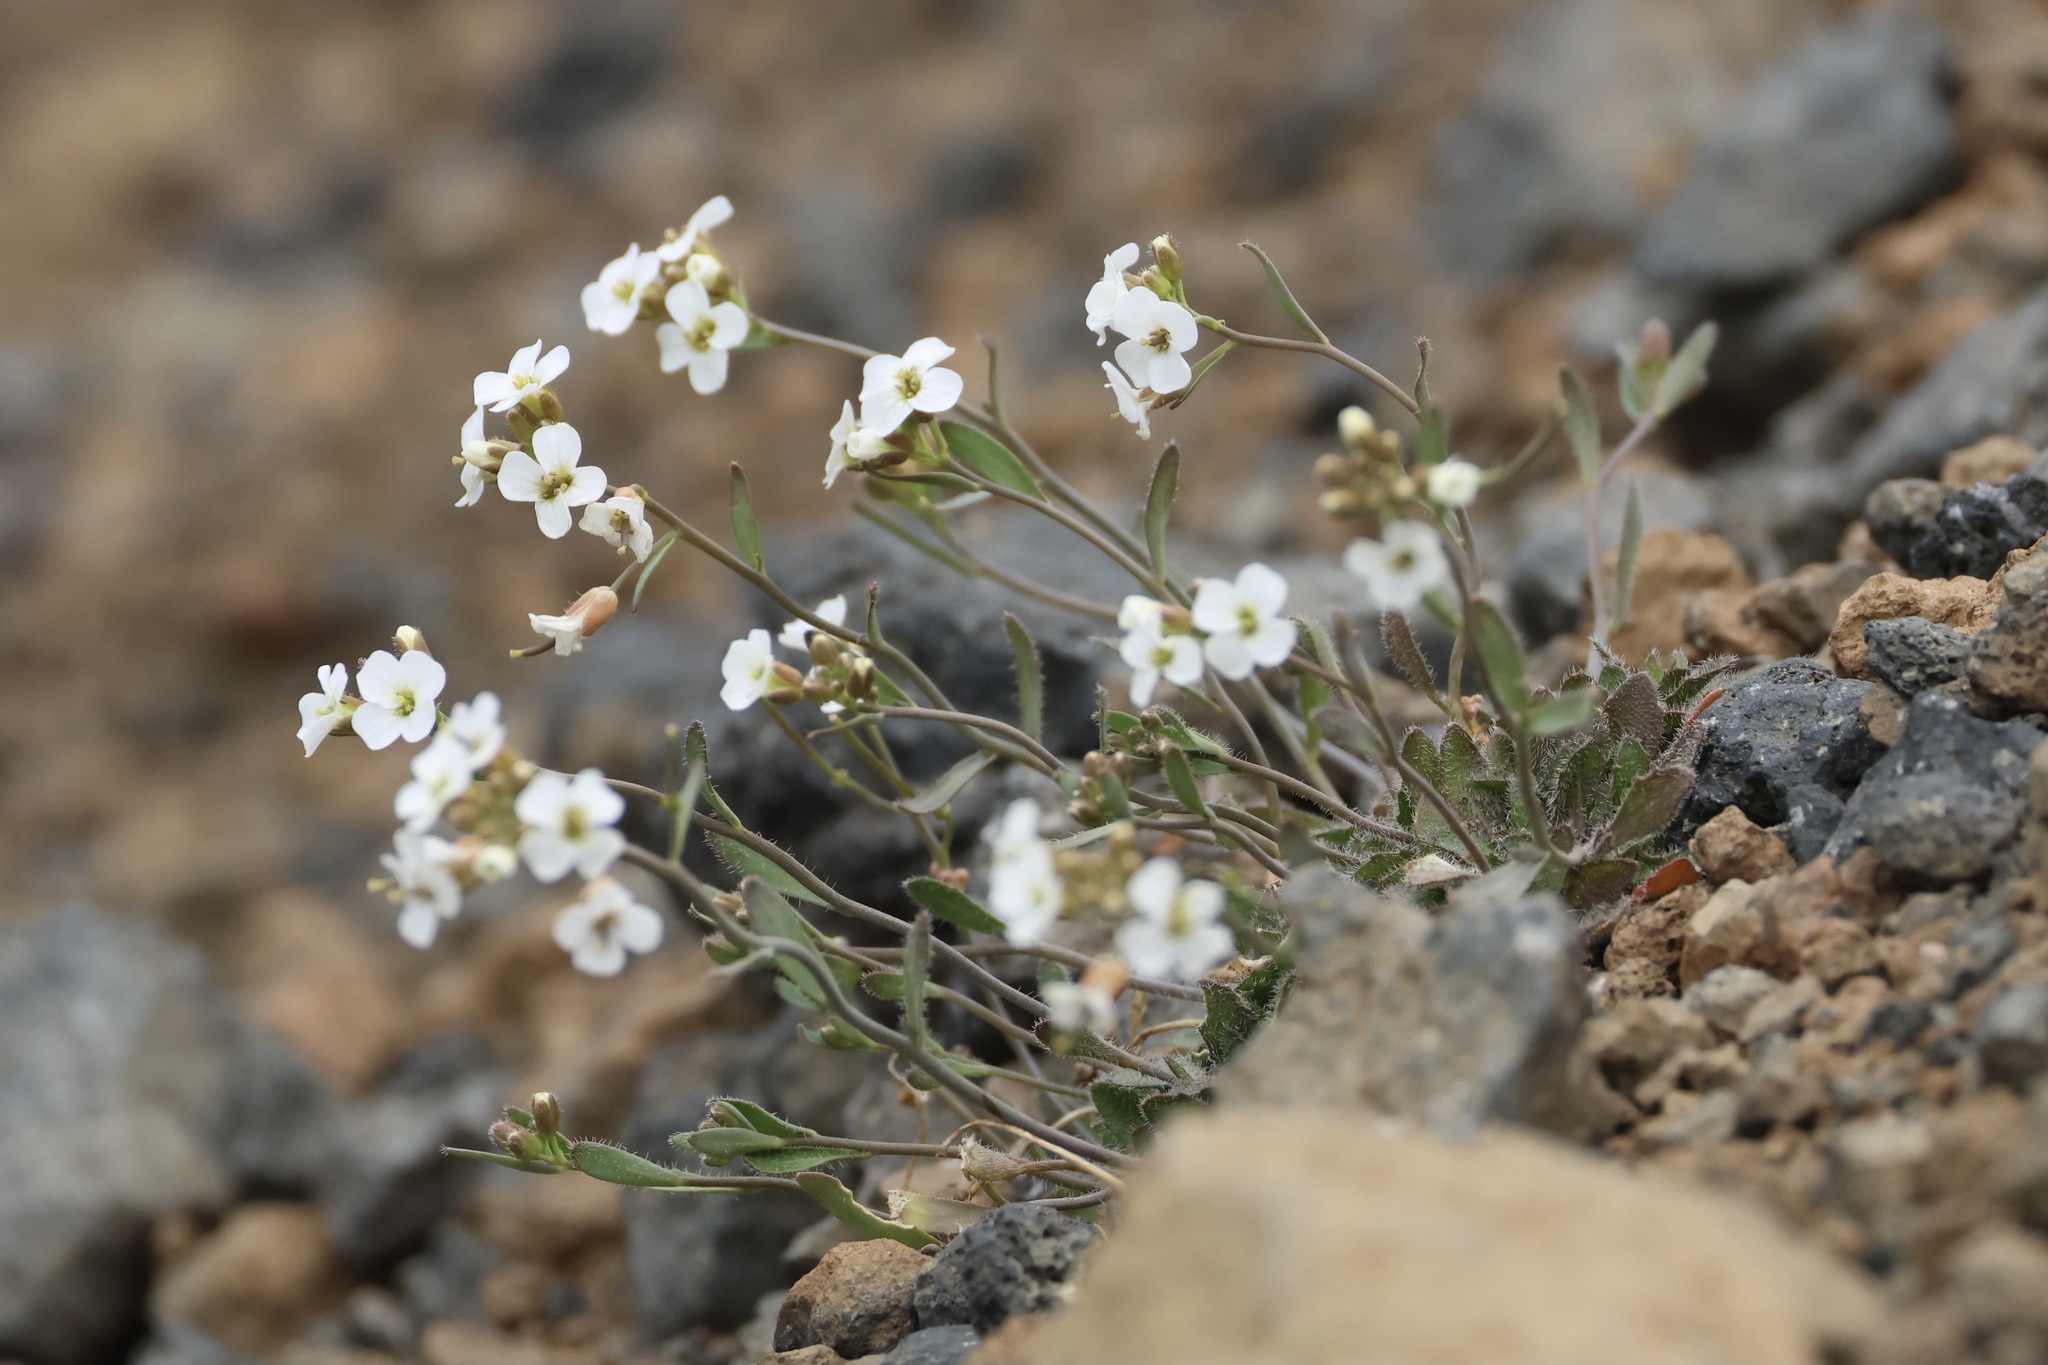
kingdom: Plantae
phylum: Tracheophyta
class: Magnoliopsida
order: Brassicales
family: Brassicaceae
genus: Arabidopsis
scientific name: Arabidopsis lyrata
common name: Lyrate rockcress
